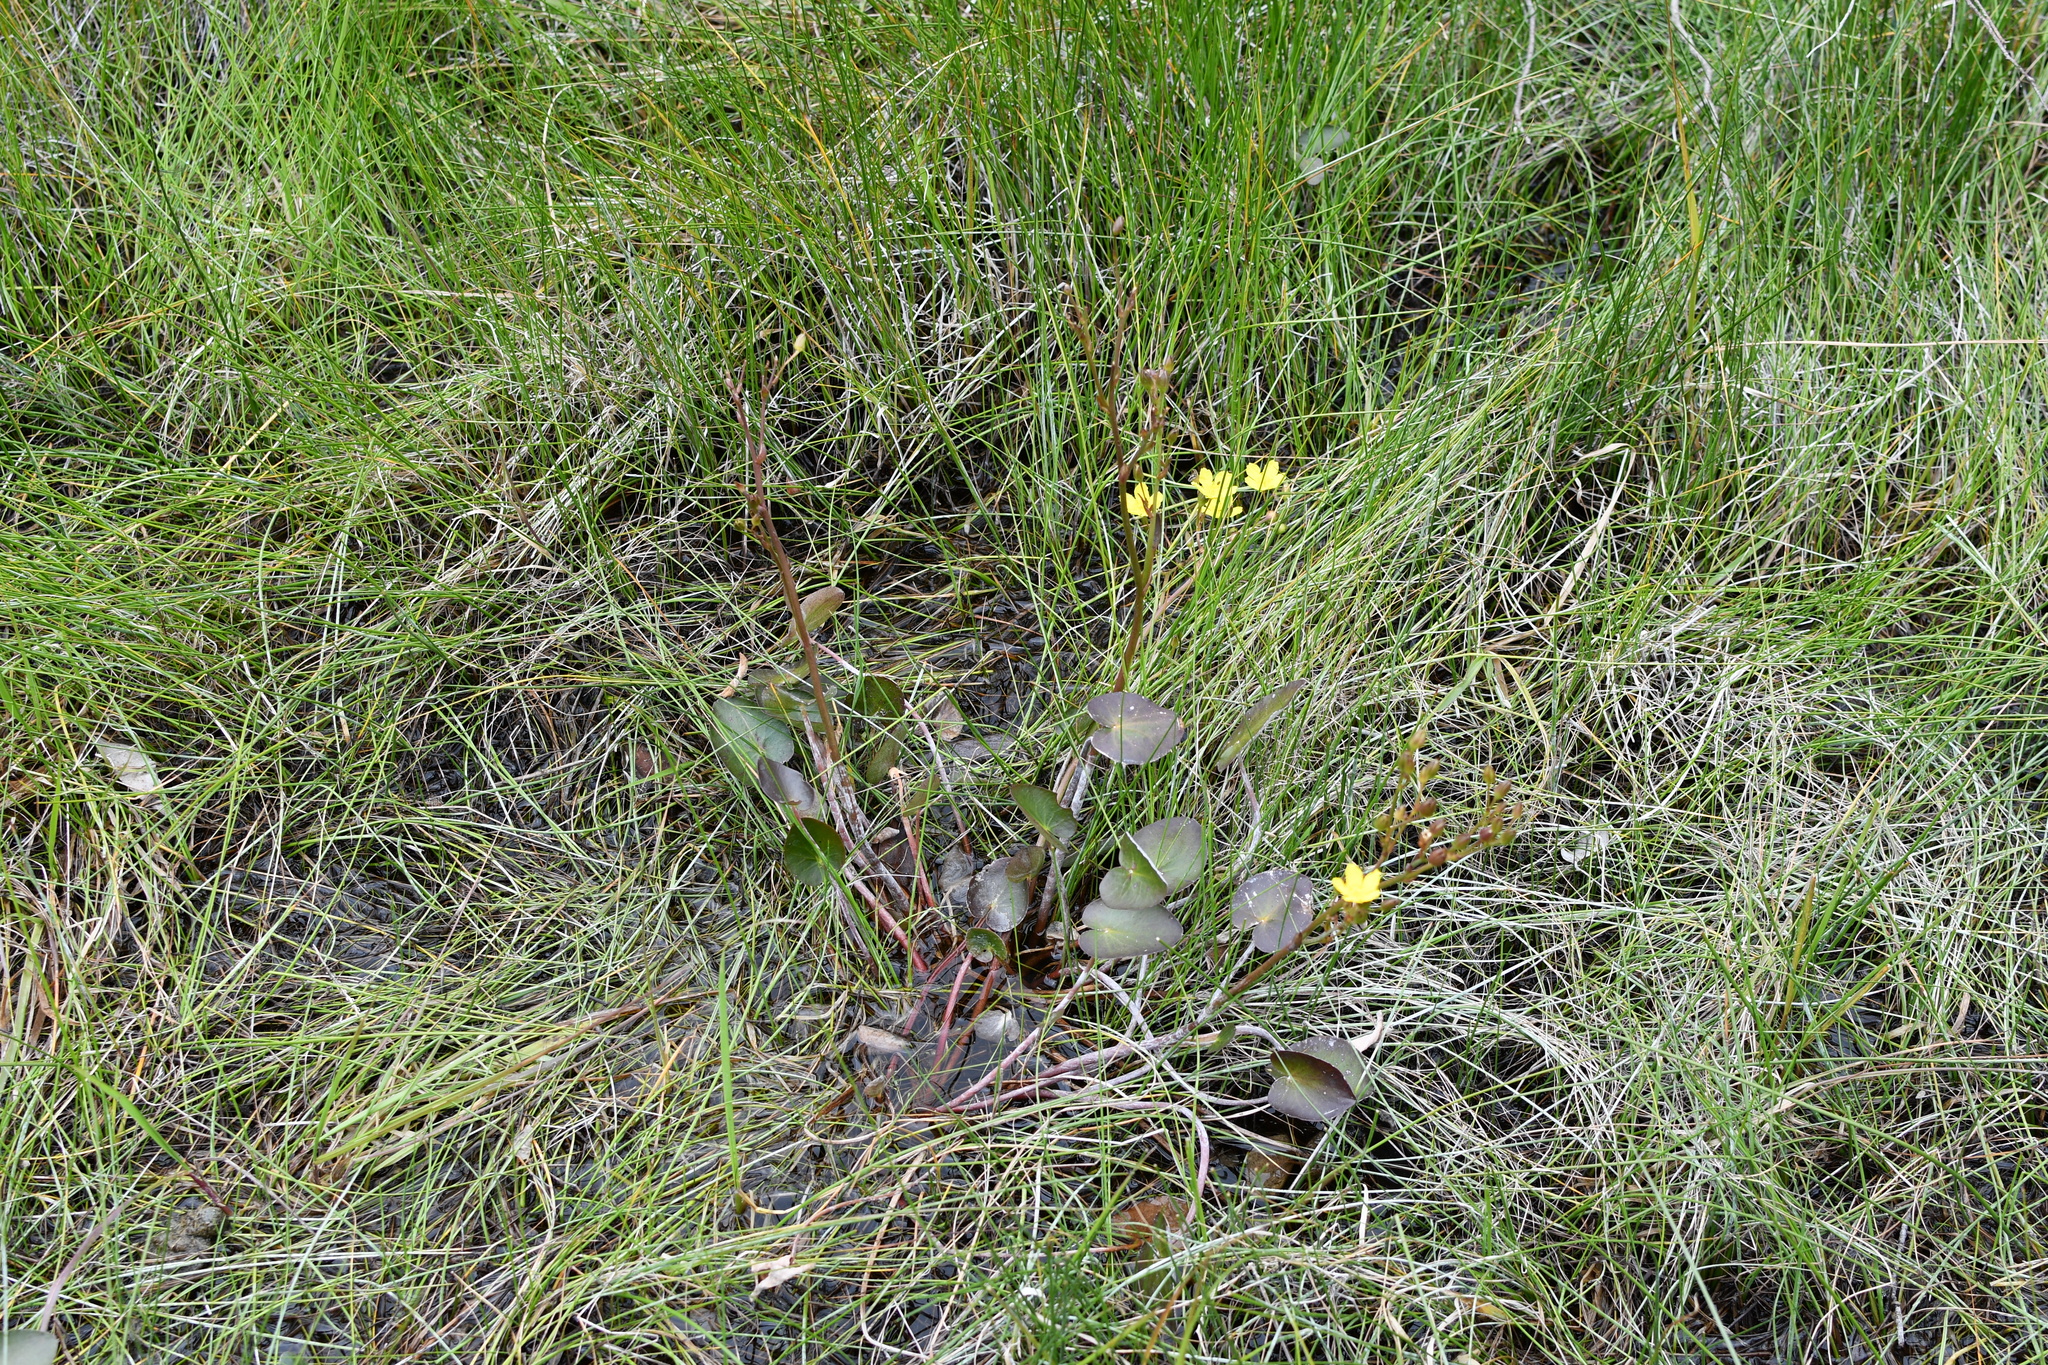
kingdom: Plantae
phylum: Tracheophyta
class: Magnoliopsida
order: Asterales
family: Menyanthaceae
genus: Ornduffia
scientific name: Ornduffia reniformis
